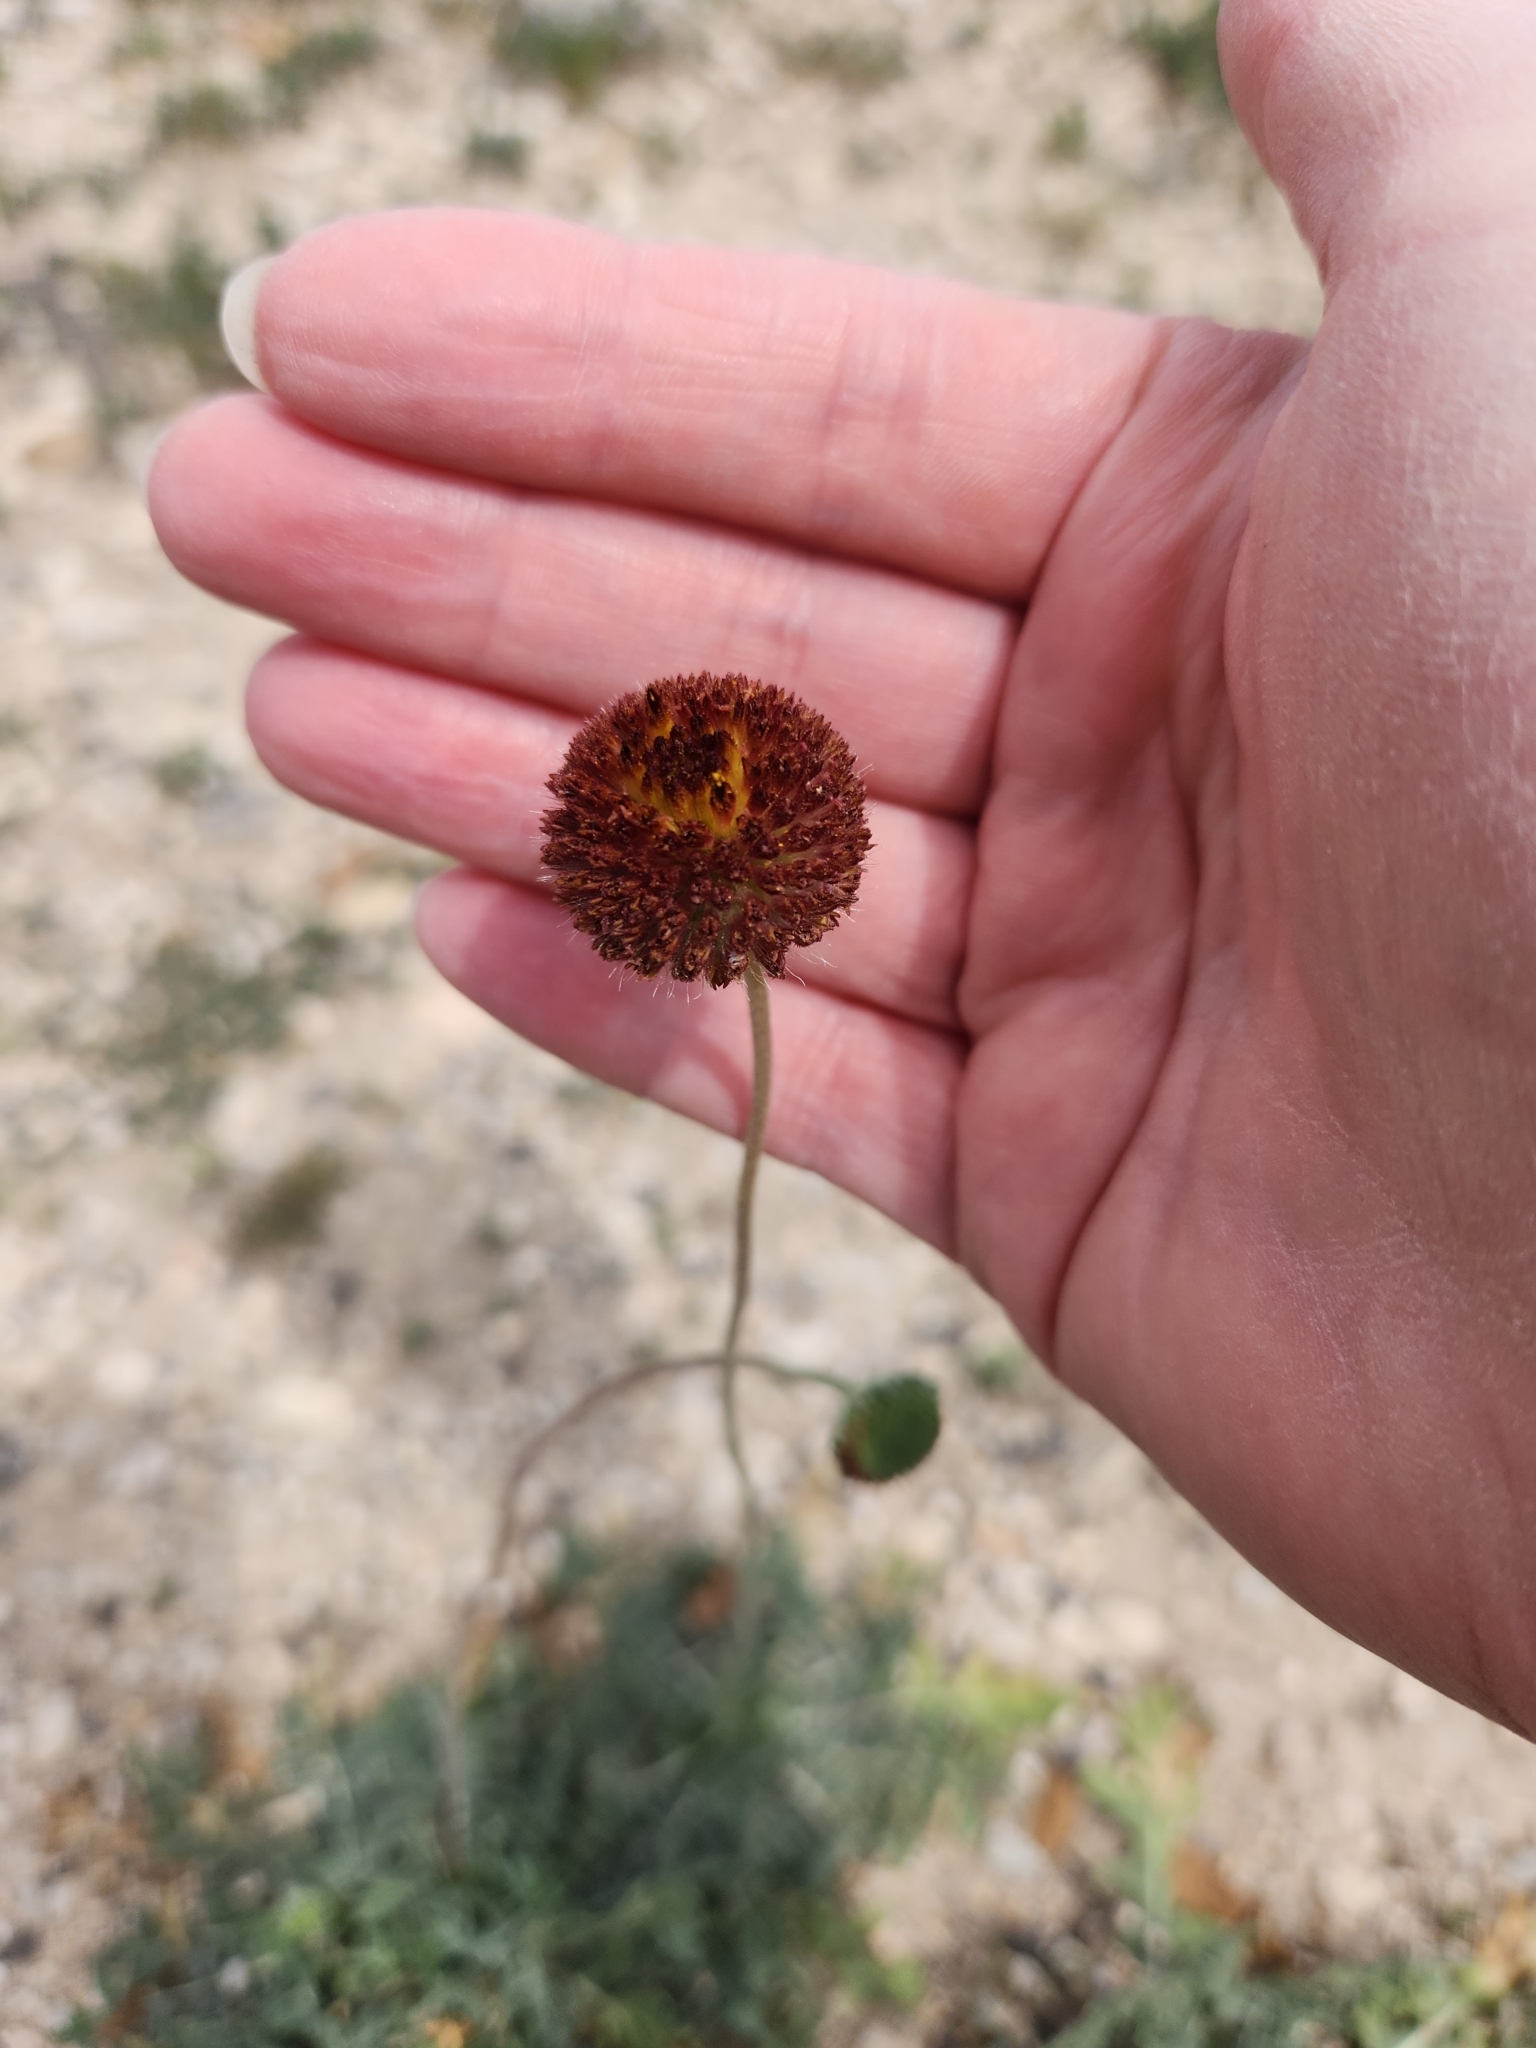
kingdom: Plantae
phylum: Tracheophyta
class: Magnoliopsida
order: Asterales
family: Asteraceae
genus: Gaillardia
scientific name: Gaillardia suavis
